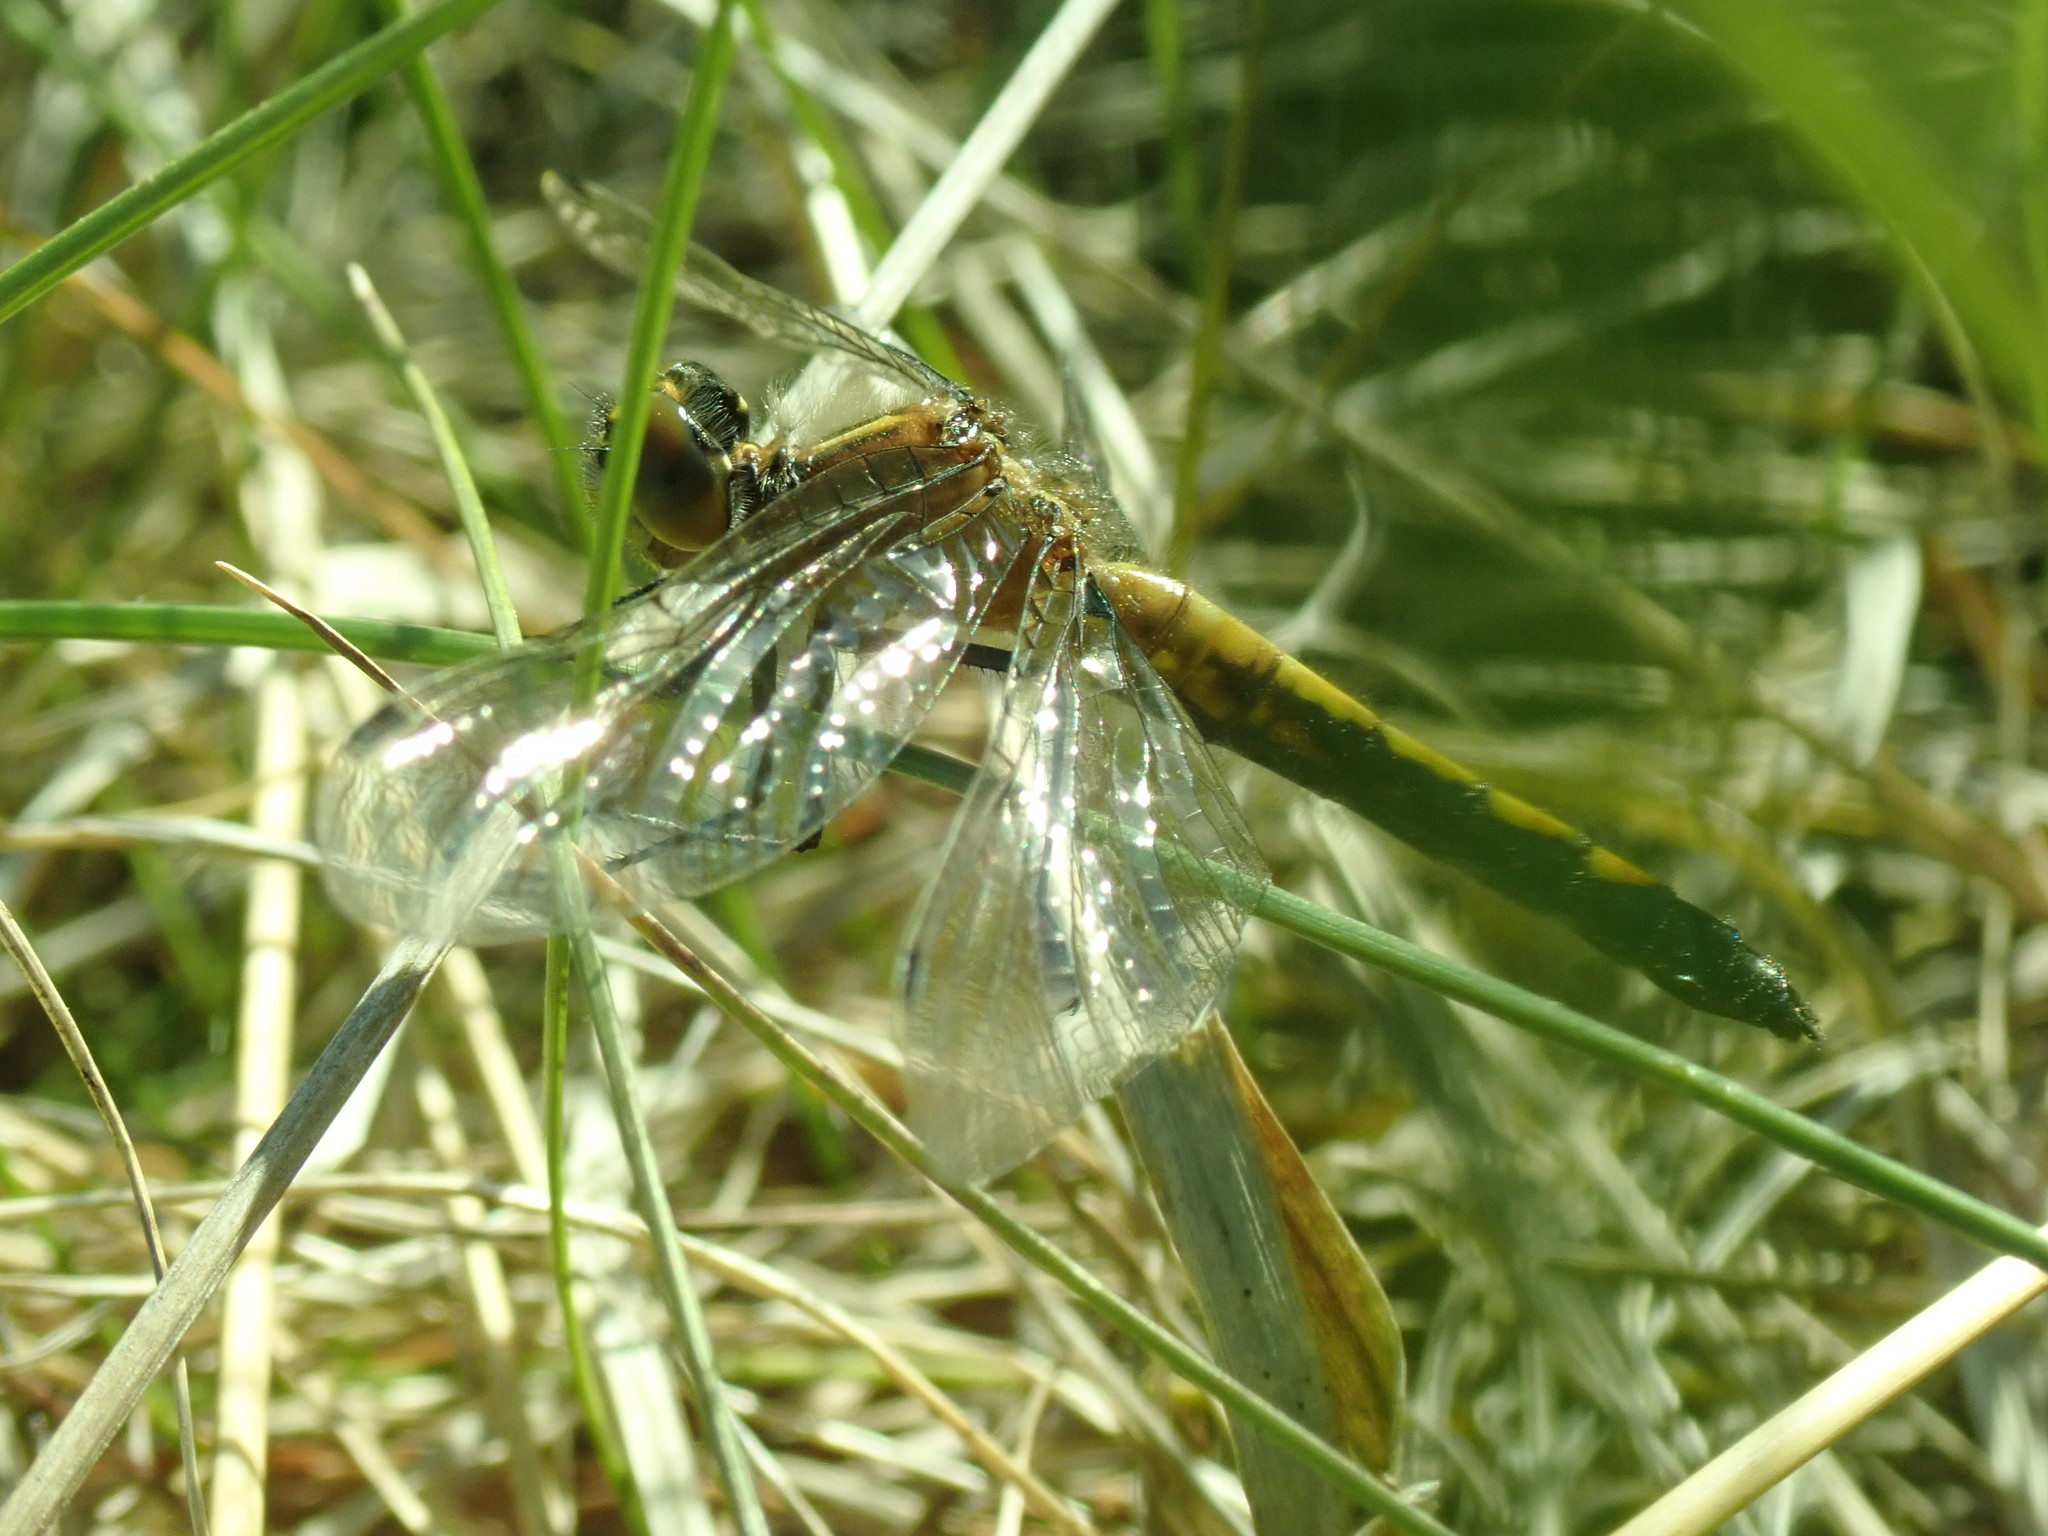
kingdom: Animalia
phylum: Arthropoda
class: Insecta
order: Odonata
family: Libellulidae
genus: Leucorrhinia
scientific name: Leucorrhinia intacta
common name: Dot-tailed whiteface
